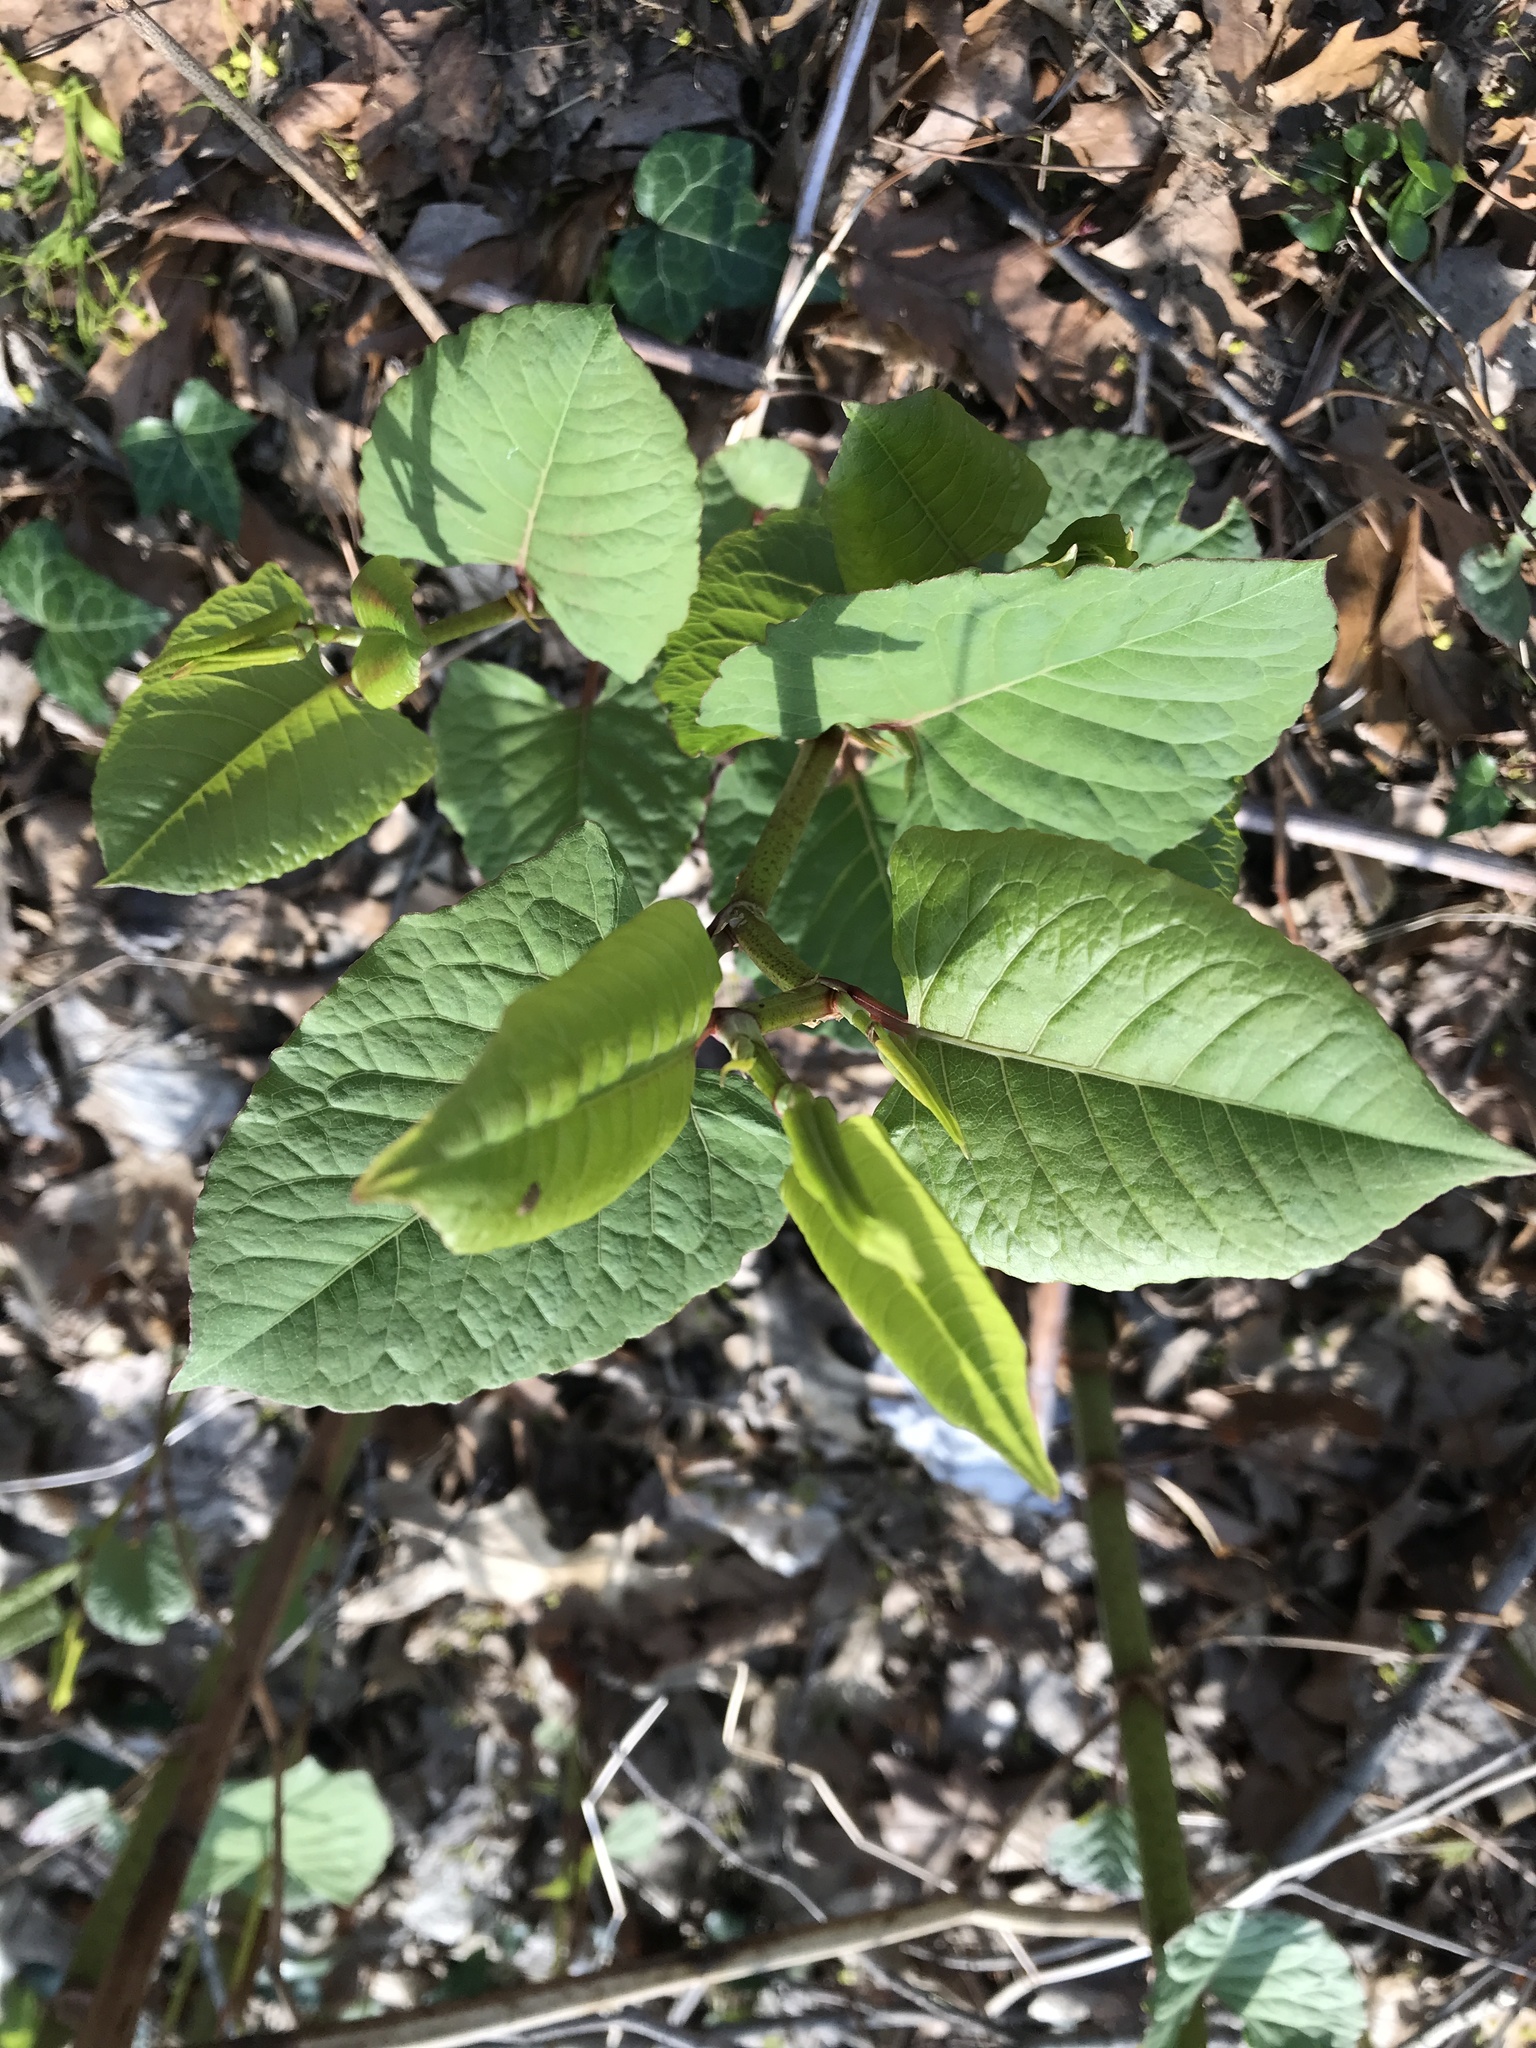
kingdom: Plantae
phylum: Tracheophyta
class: Magnoliopsida
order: Caryophyllales
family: Polygonaceae
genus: Reynoutria
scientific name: Reynoutria japonica
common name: Japanese knotweed
